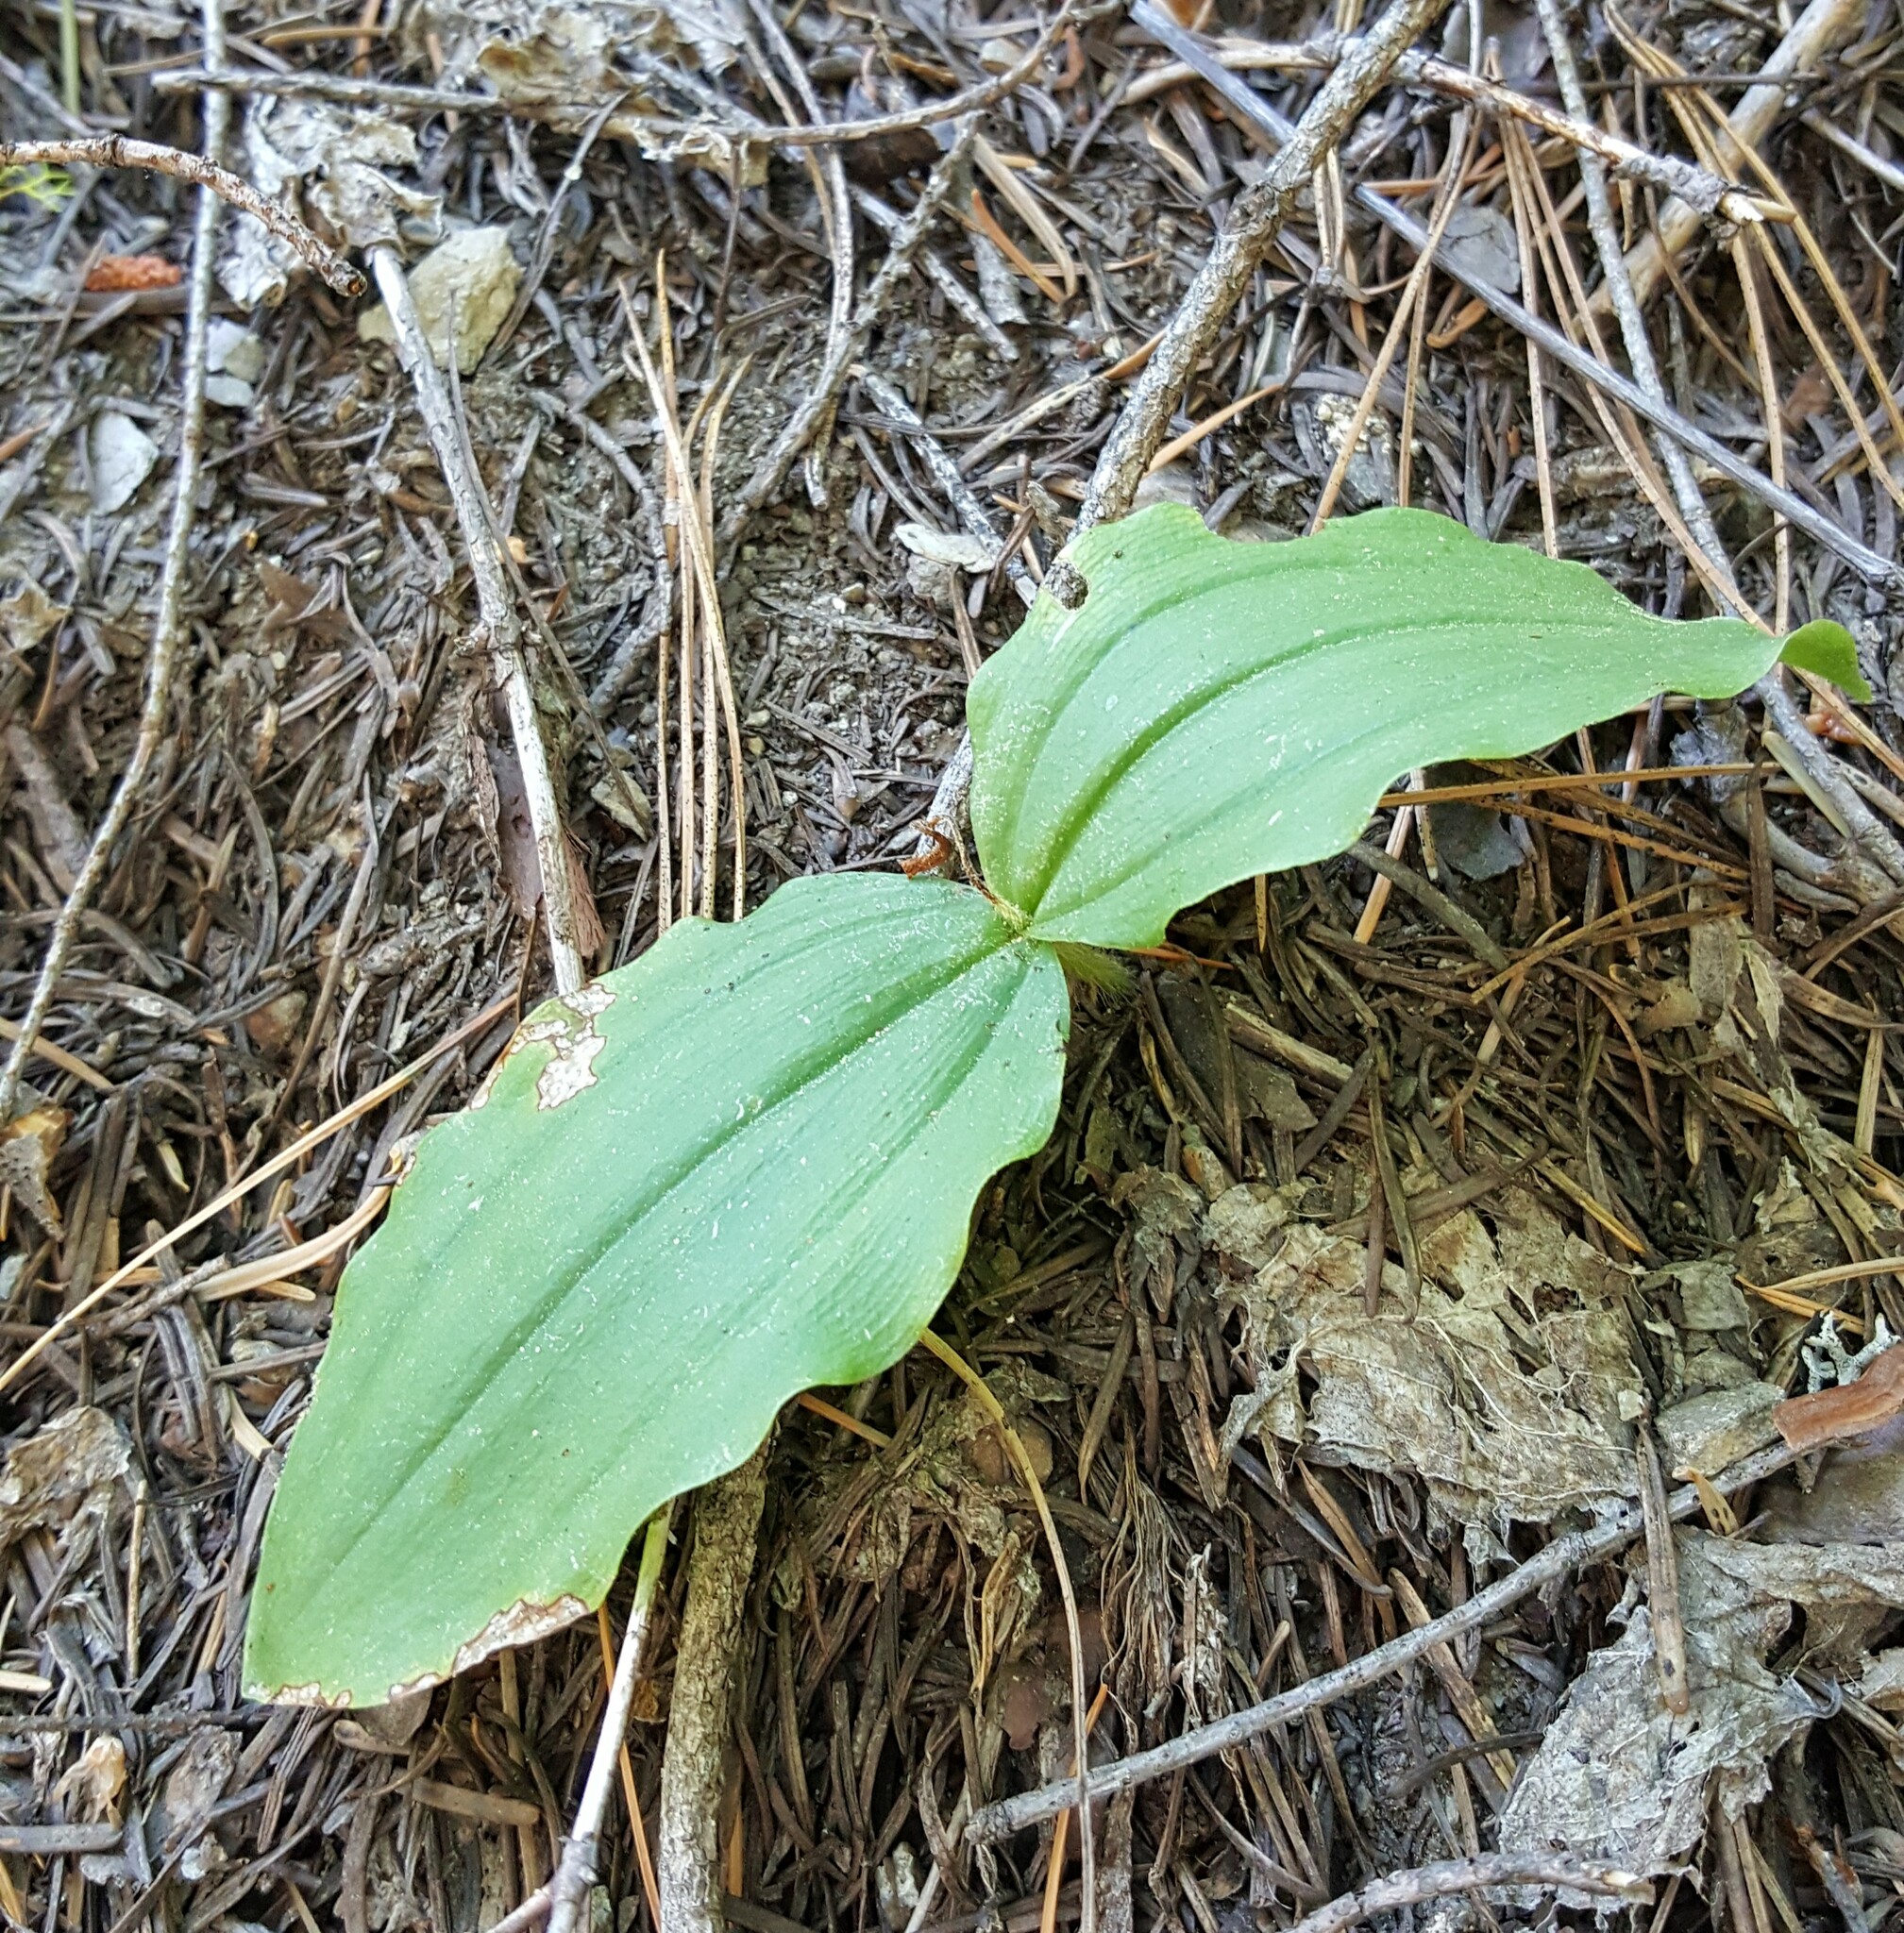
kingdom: Plantae
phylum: Tracheophyta
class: Liliopsida
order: Asparagales
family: Orchidaceae
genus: Cypripedium
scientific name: Cypripedium fasciculatum
